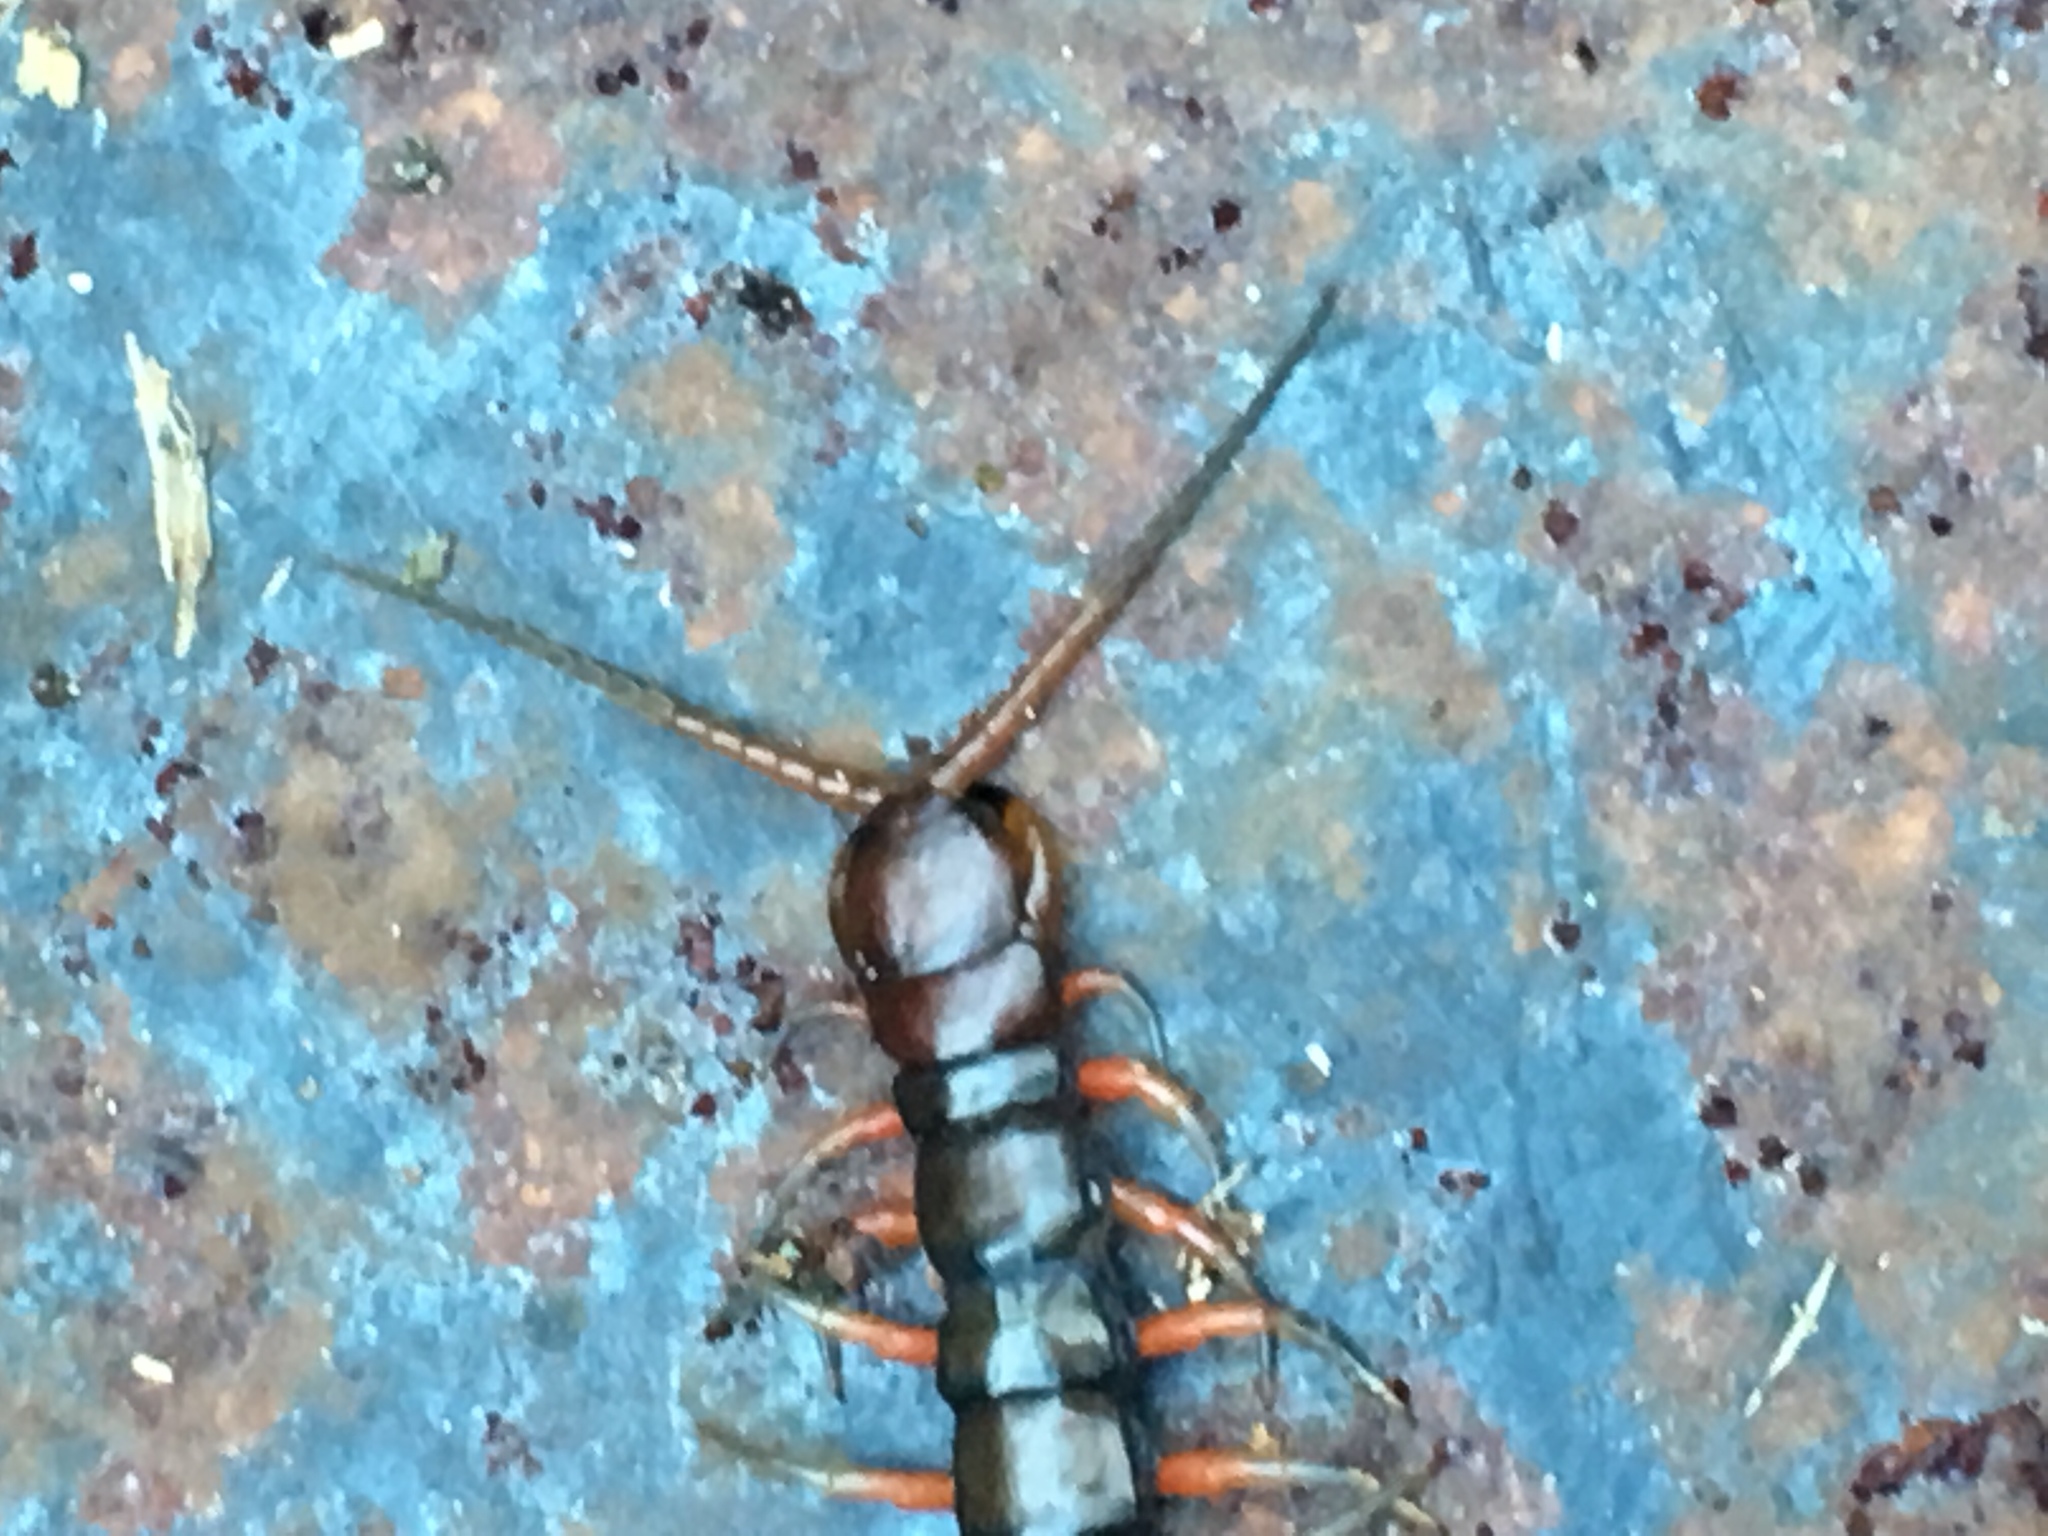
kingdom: Animalia
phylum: Arthropoda
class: Chilopoda
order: Scolopendromorpha
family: Scolopendridae
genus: Scolopendra
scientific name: Scolopendra subspinipes
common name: Centipede
